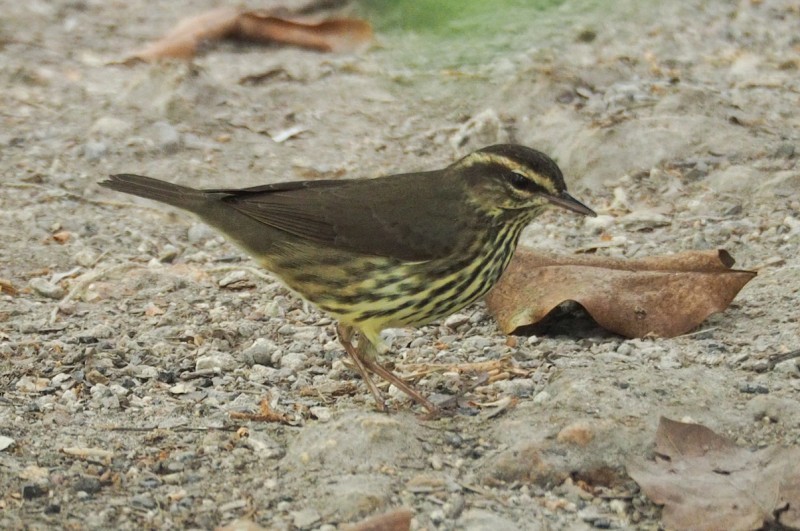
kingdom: Animalia
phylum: Chordata
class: Aves
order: Passeriformes
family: Parulidae
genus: Parkesia
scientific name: Parkesia noveboracensis
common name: Northern waterthrush
